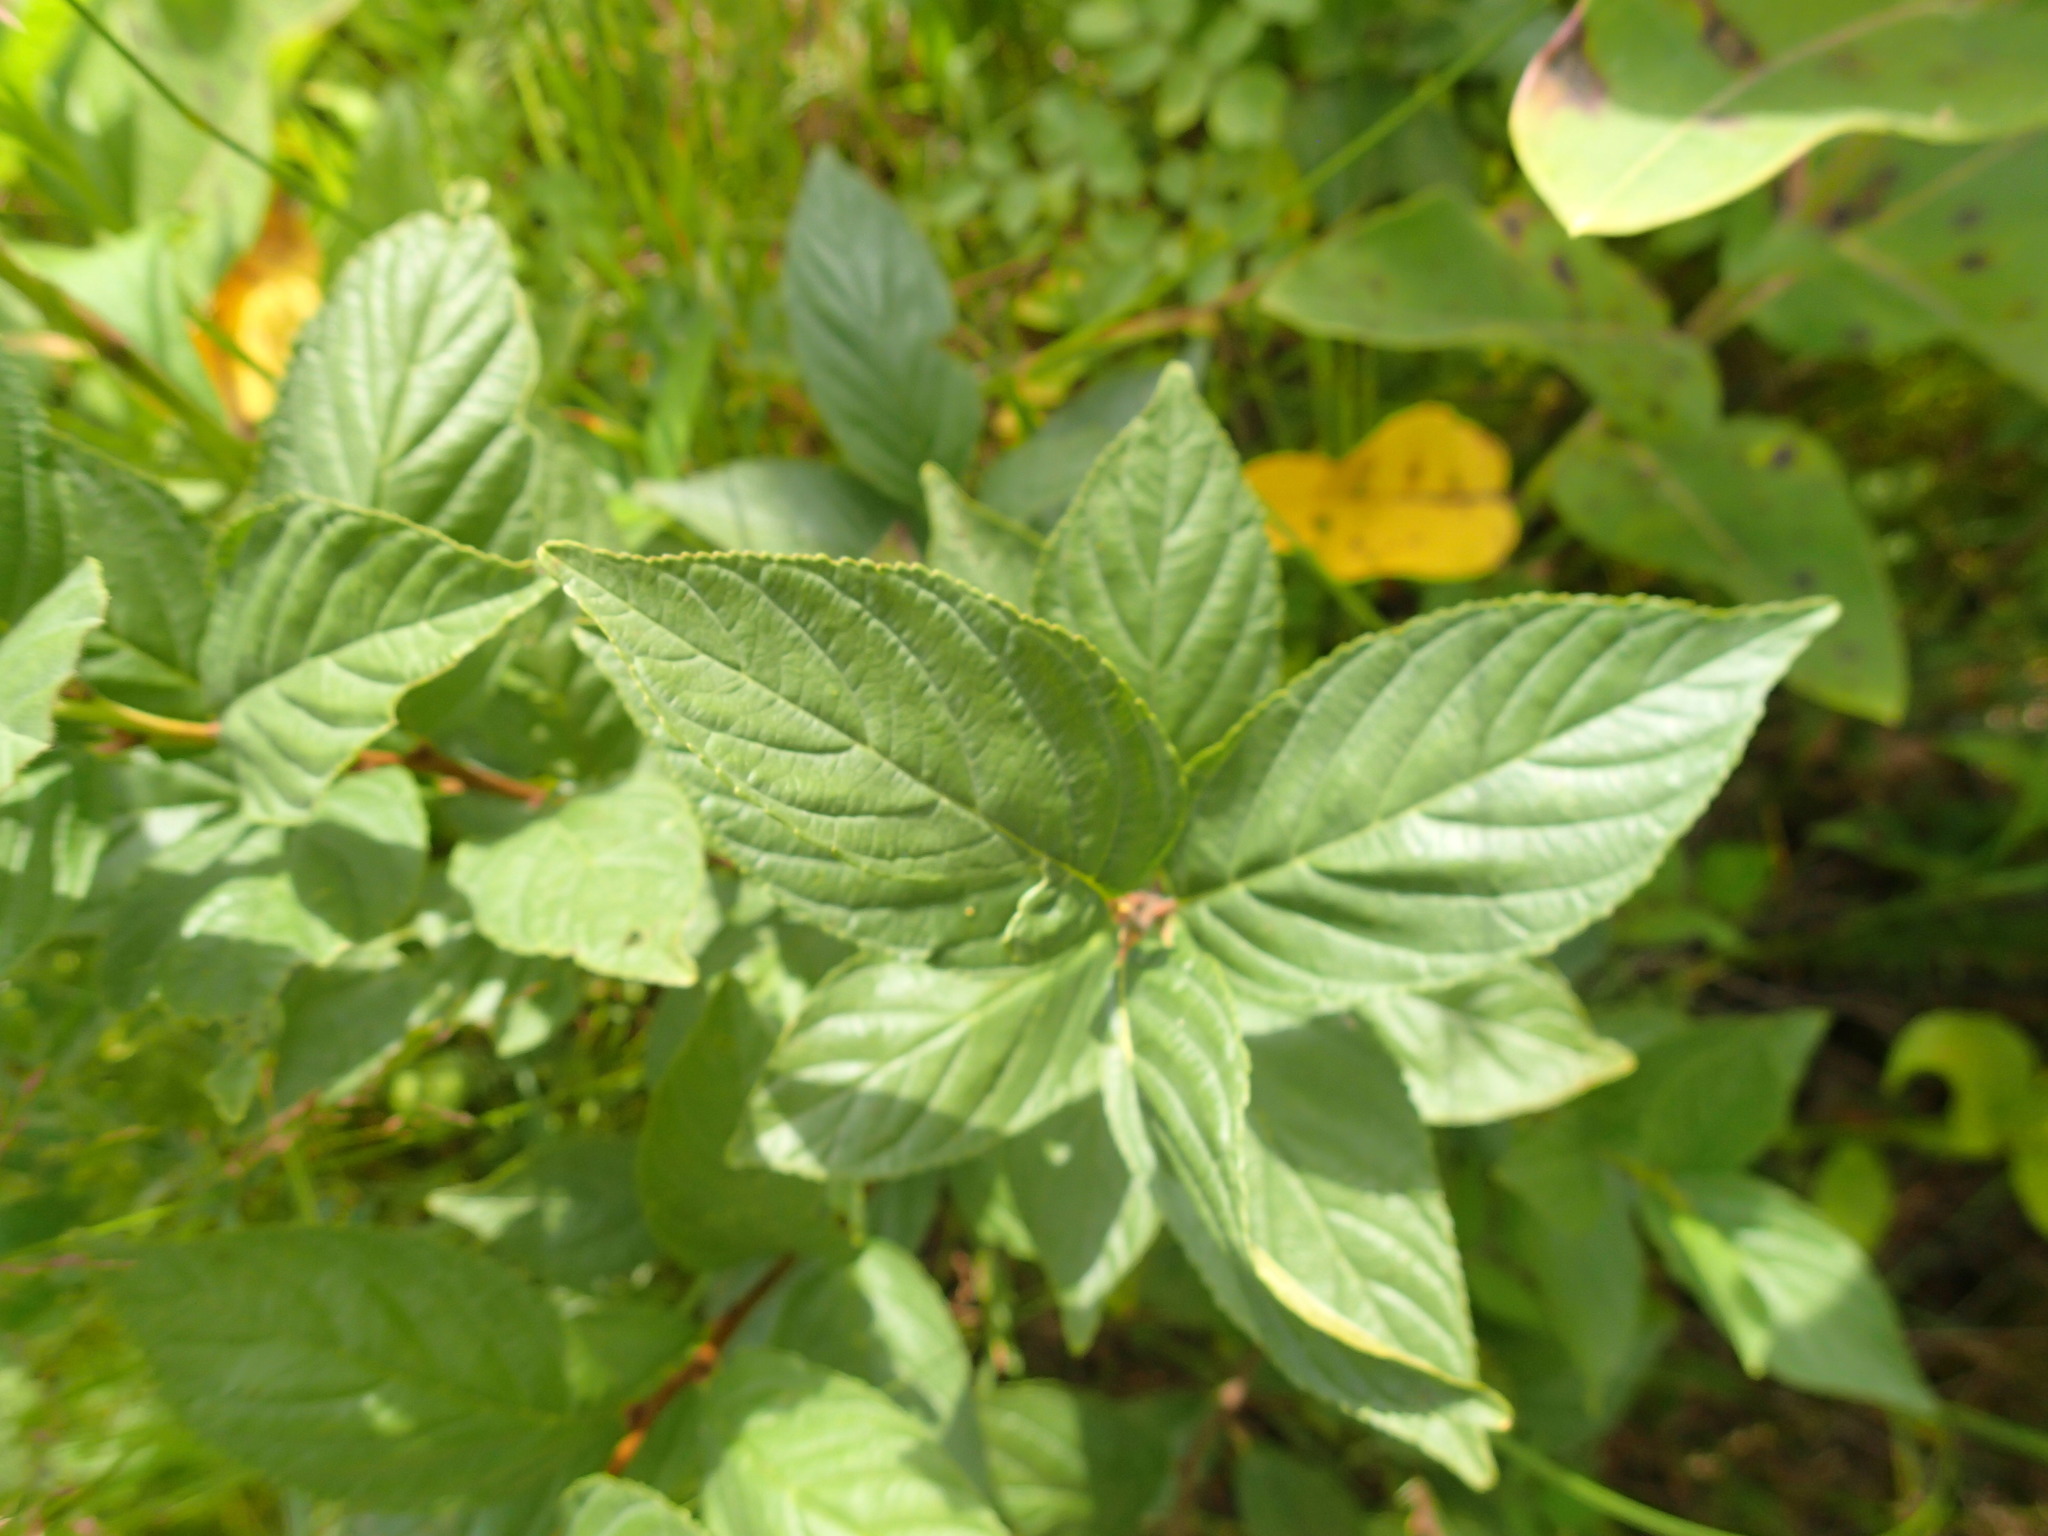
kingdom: Plantae
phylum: Tracheophyta
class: Magnoliopsida
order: Rosales
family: Rhamnaceae
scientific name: Rhamnaceae
